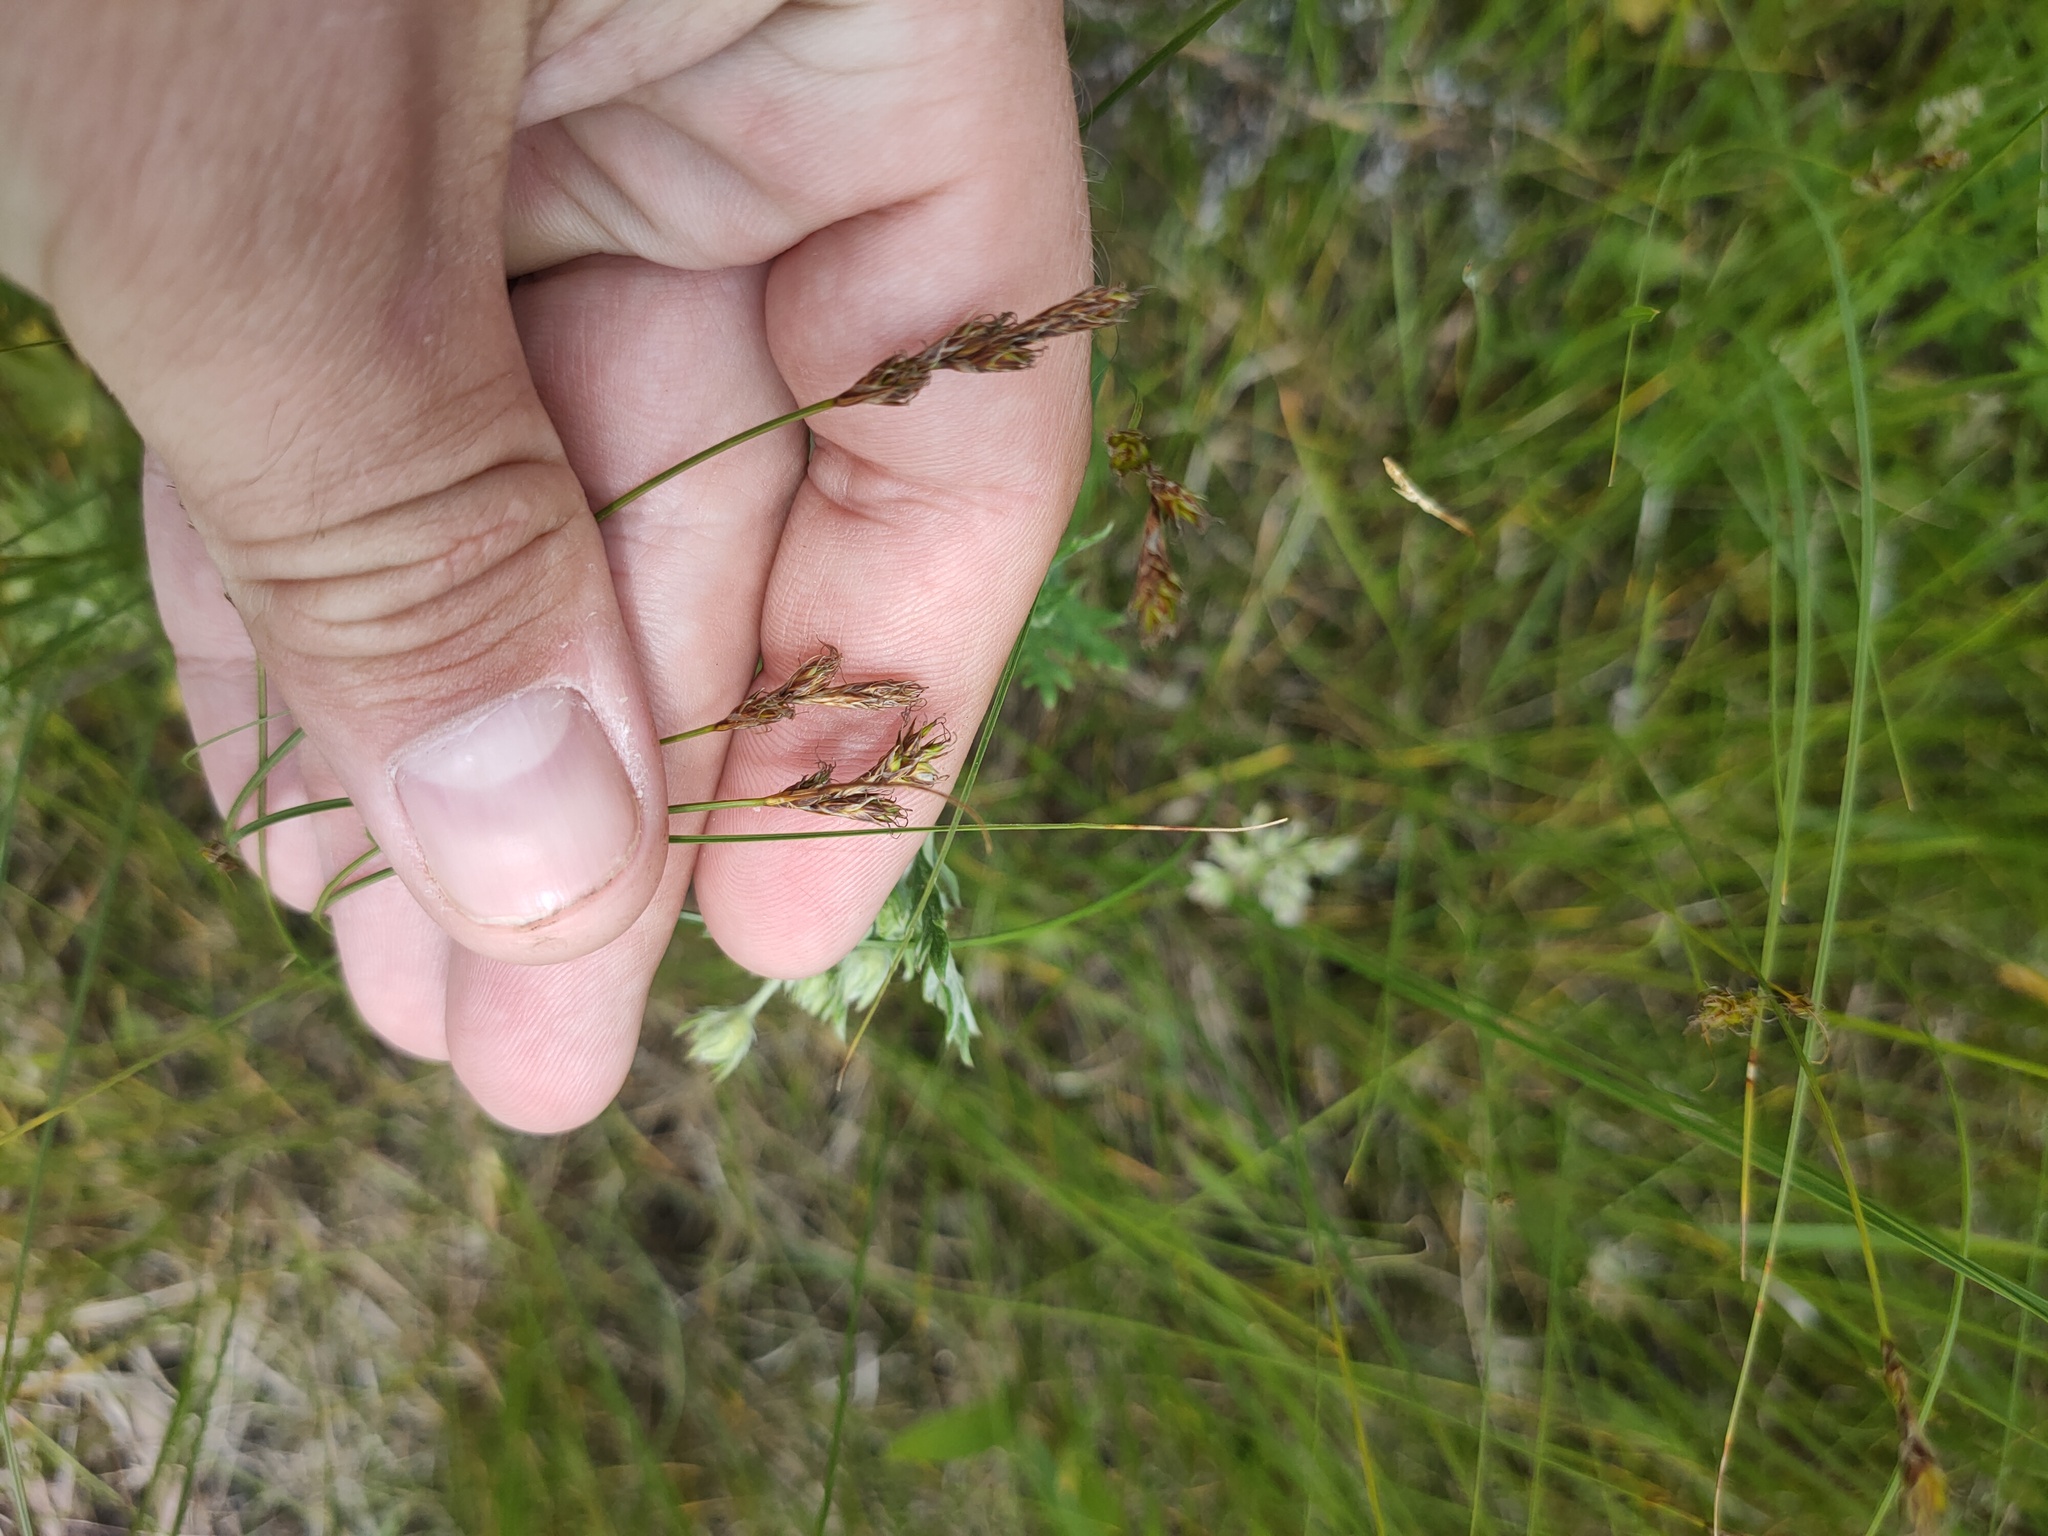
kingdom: Plantae
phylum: Tracheophyta
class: Liliopsida
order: Poales
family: Cyperaceae
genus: Carex
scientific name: Carex praecox
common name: Early sedge
